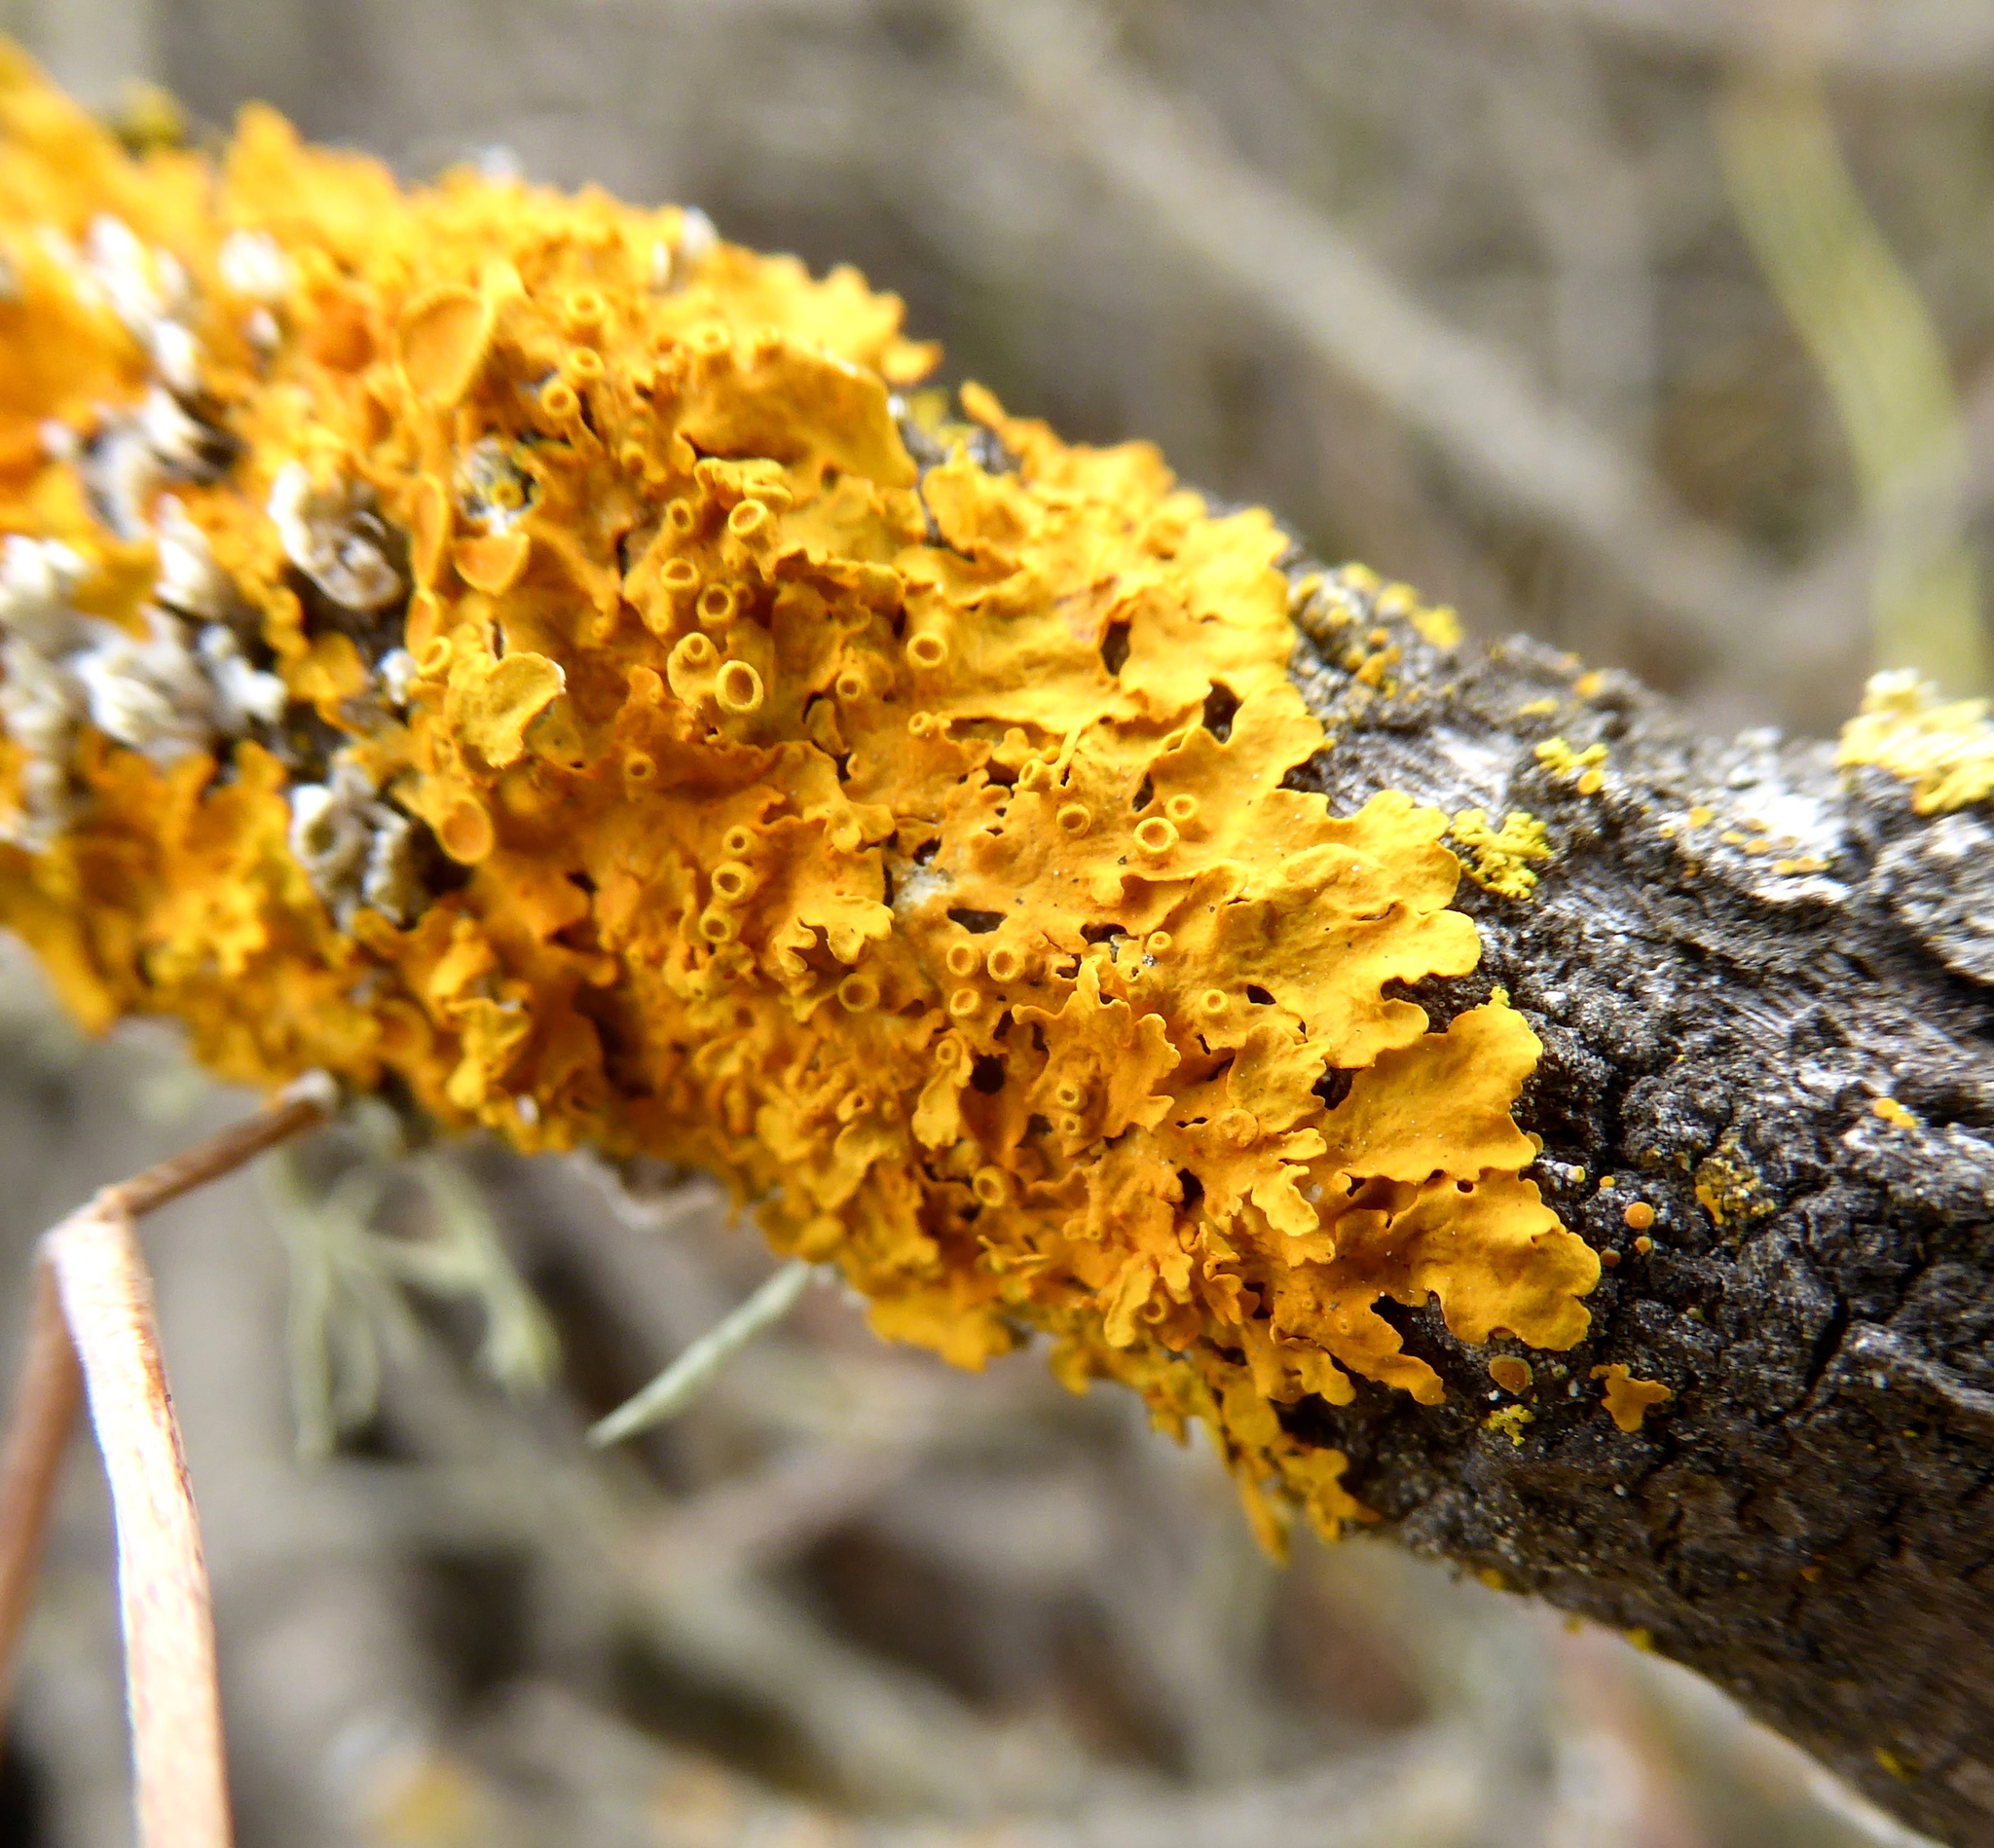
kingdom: Fungi
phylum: Ascomycota
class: Lecanoromycetes
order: Teloschistales
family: Teloschistaceae
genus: Xanthoria
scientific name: Xanthoria parietina
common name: Common orange lichen
